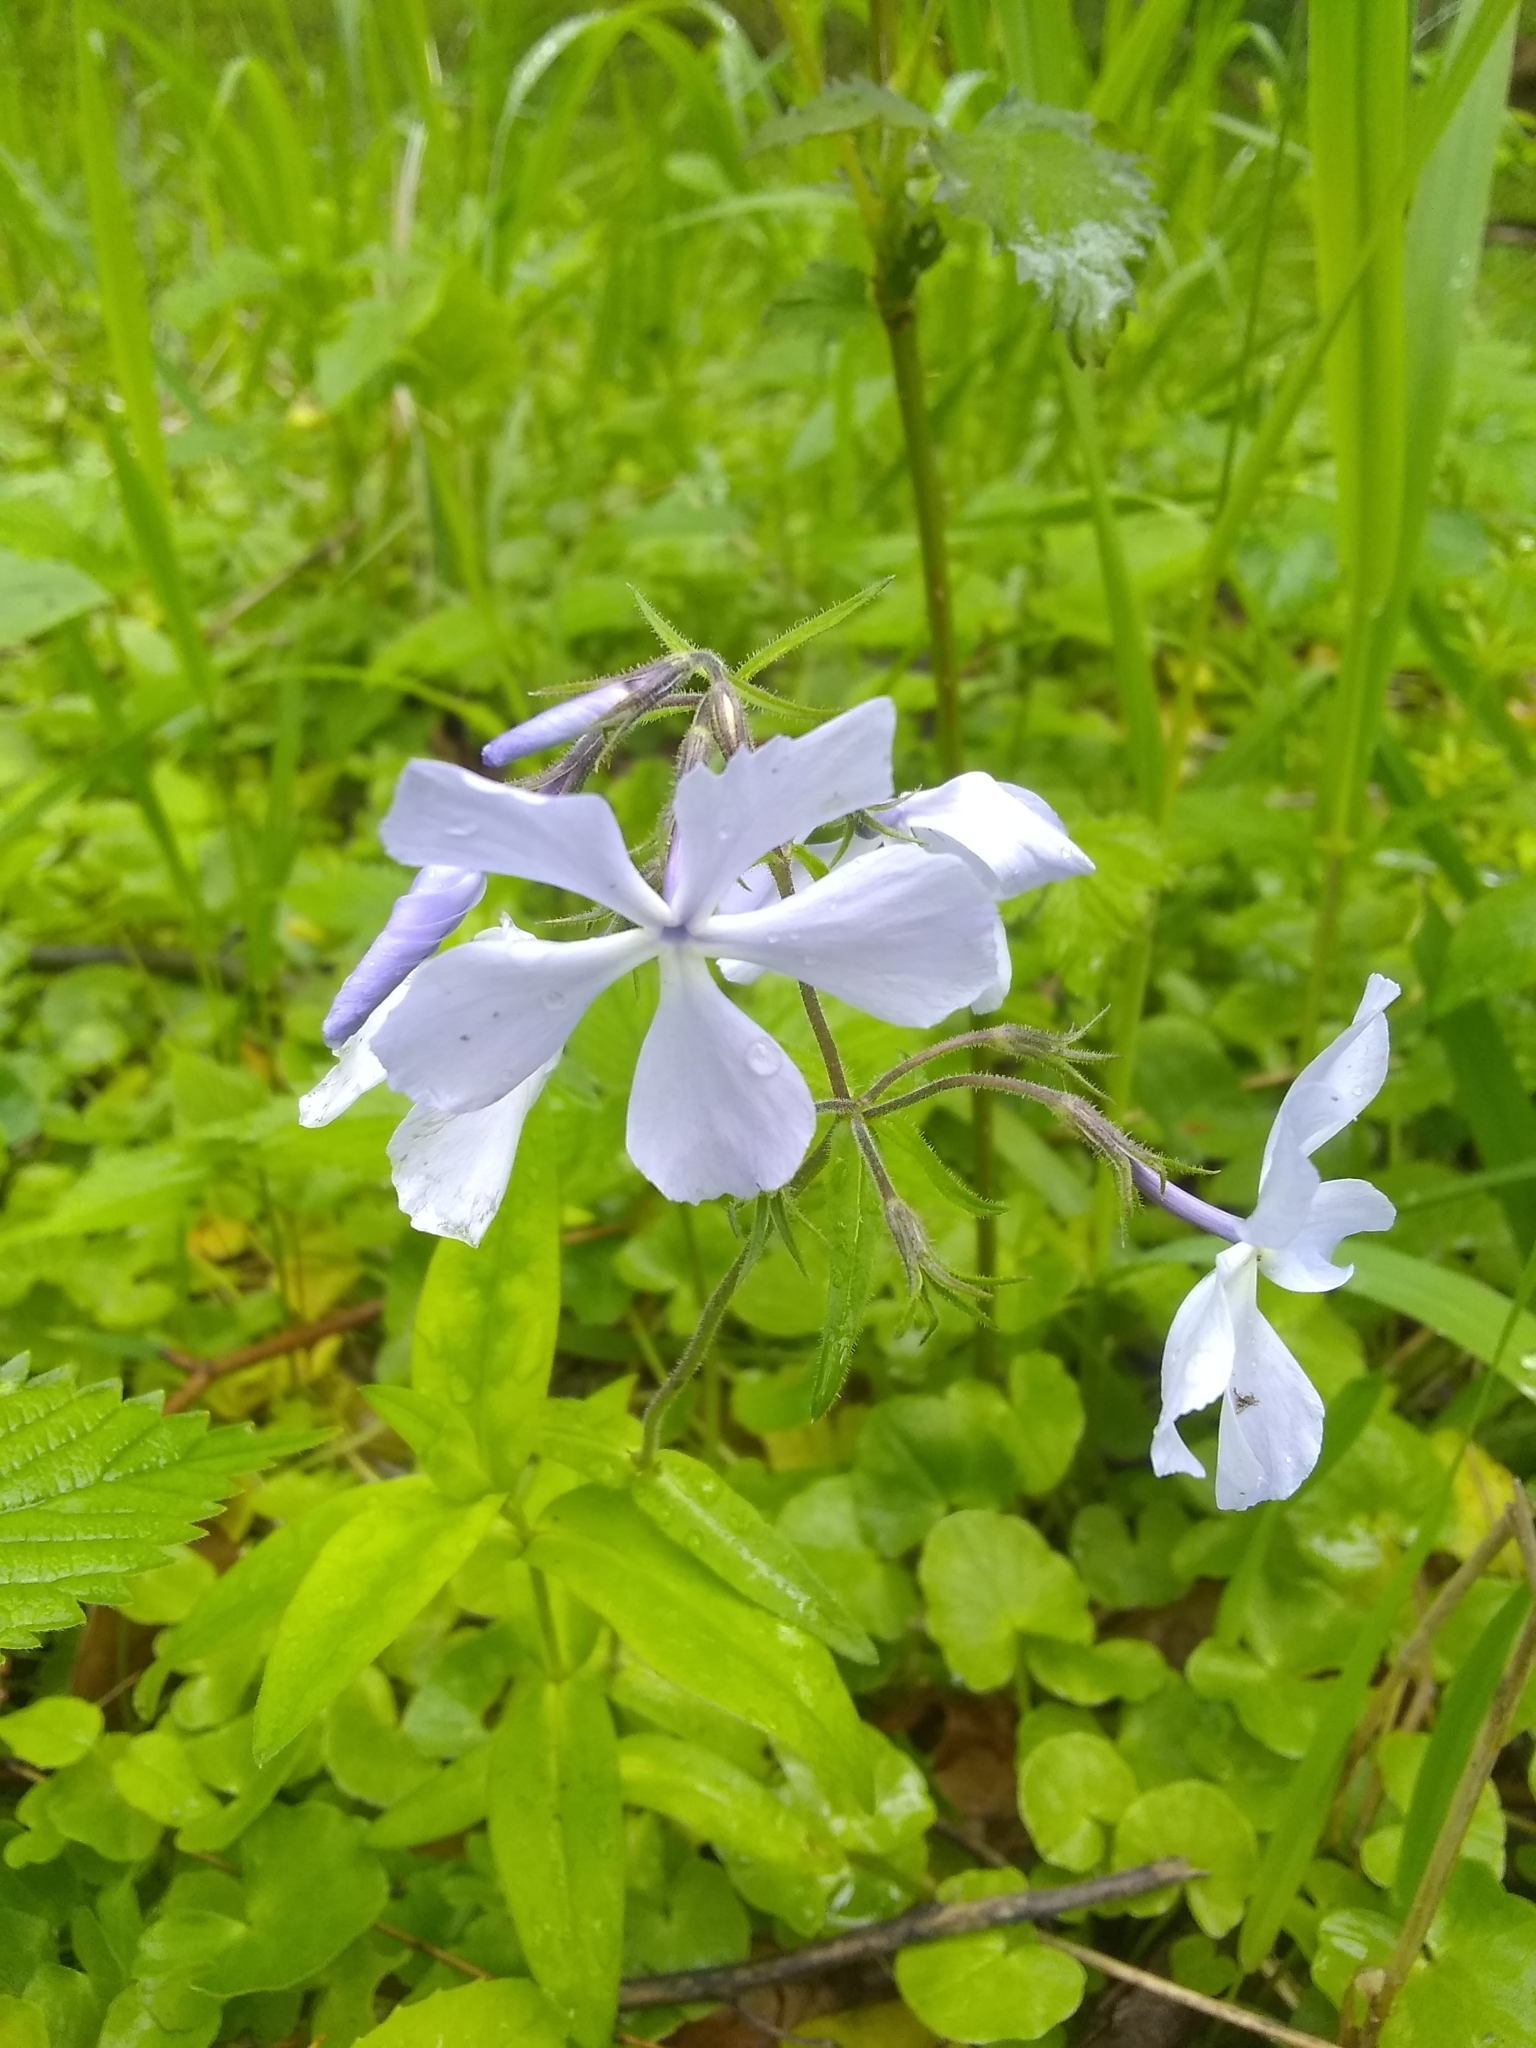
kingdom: Plantae
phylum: Tracheophyta
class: Magnoliopsida
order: Ericales
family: Polemoniaceae
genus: Phlox
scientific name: Phlox divaricata
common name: Blue phlox
